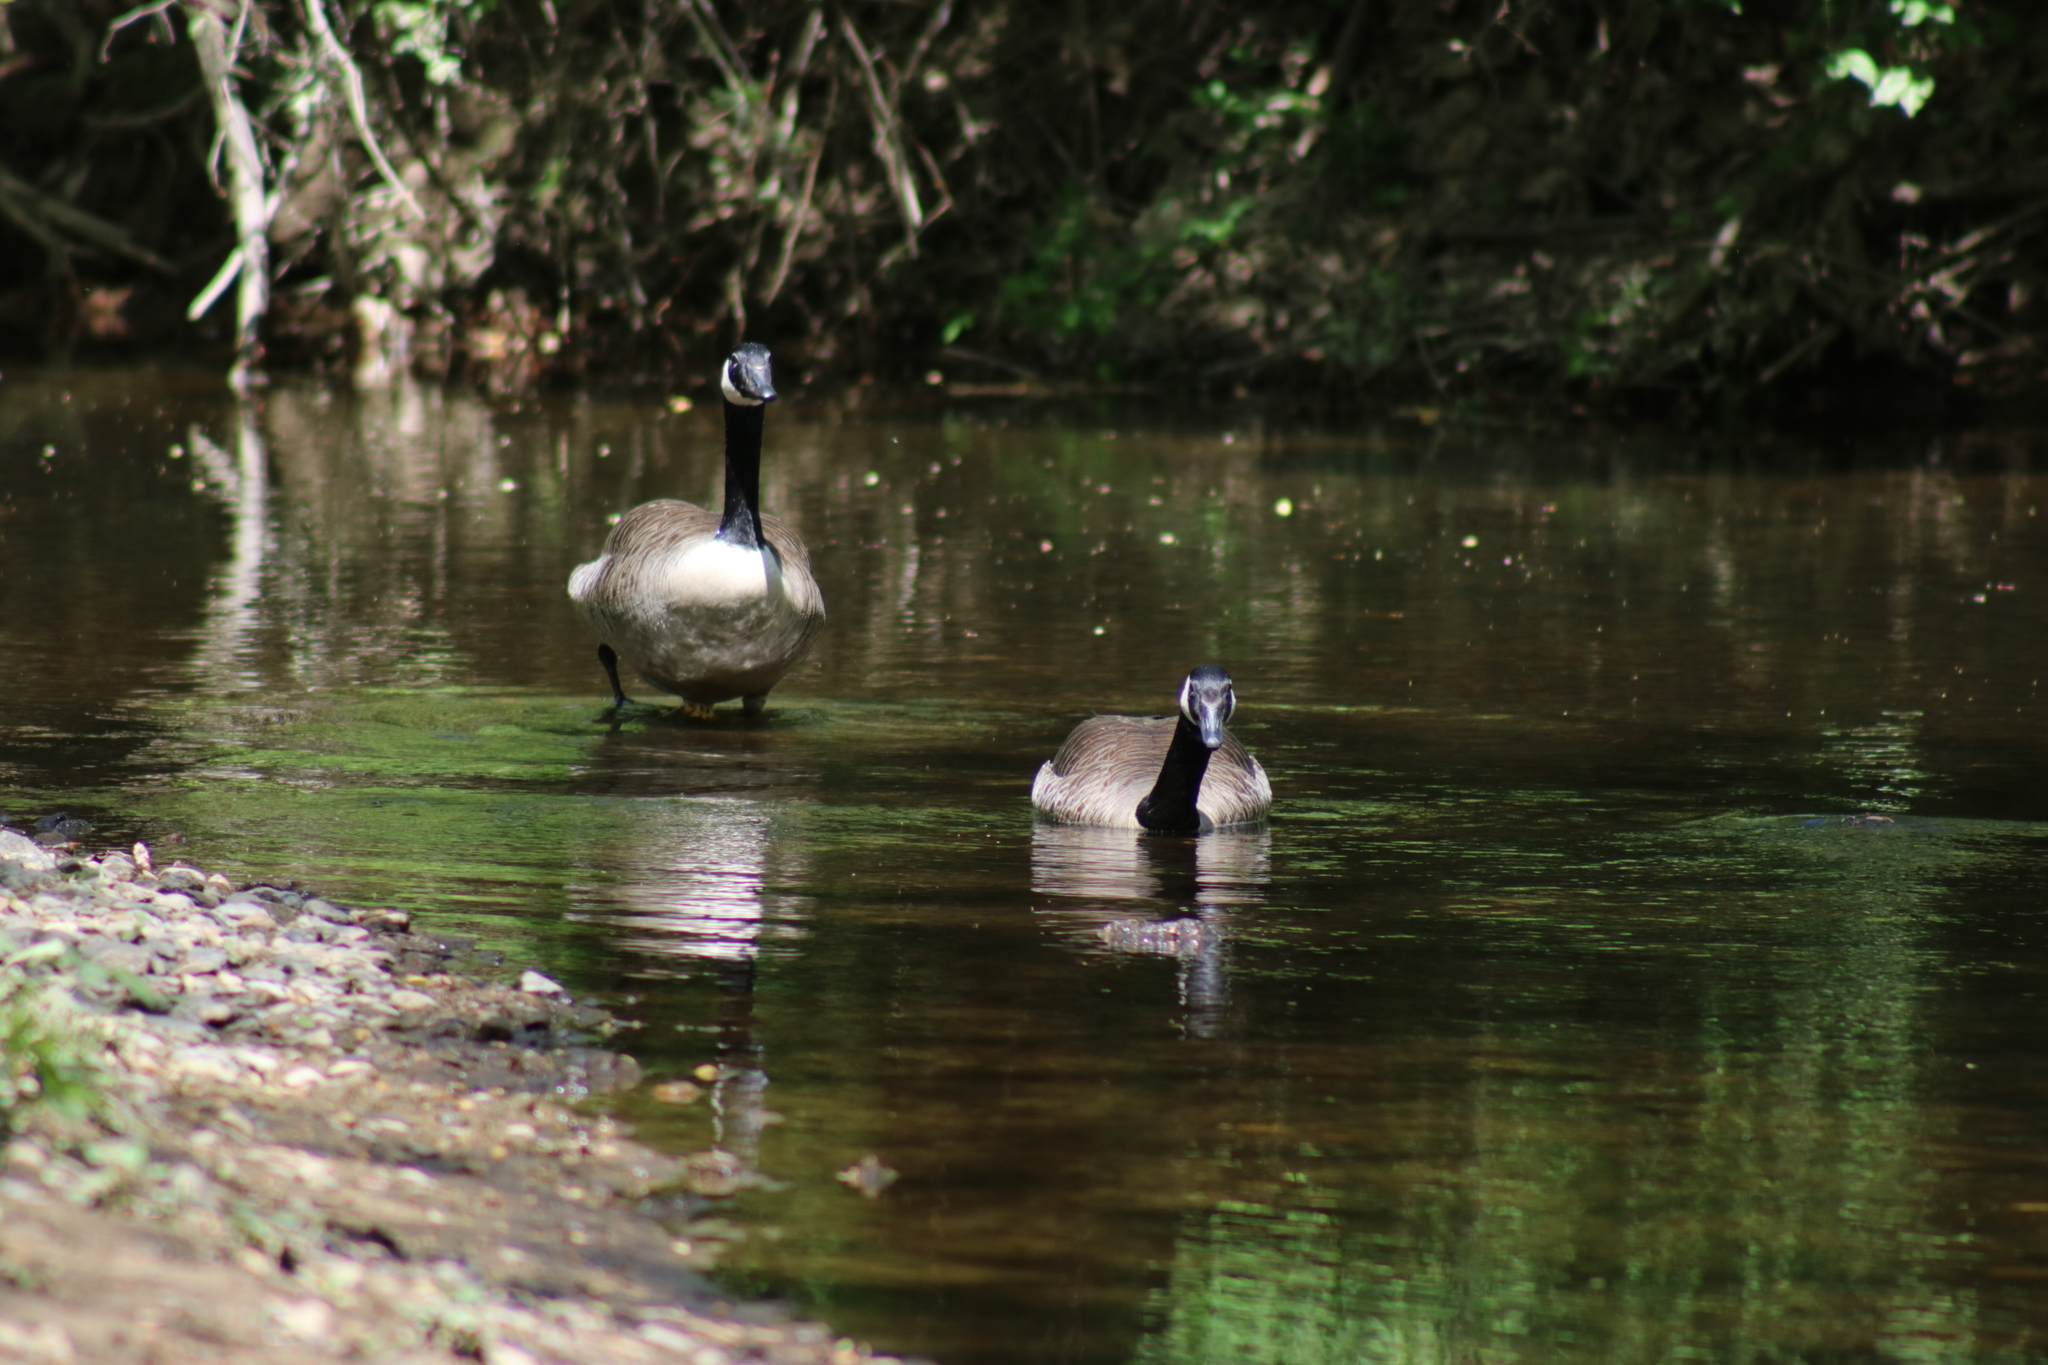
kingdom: Animalia
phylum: Chordata
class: Aves
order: Anseriformes
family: Anatidae
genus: Branta
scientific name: Branta canadensis
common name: Canada goose
